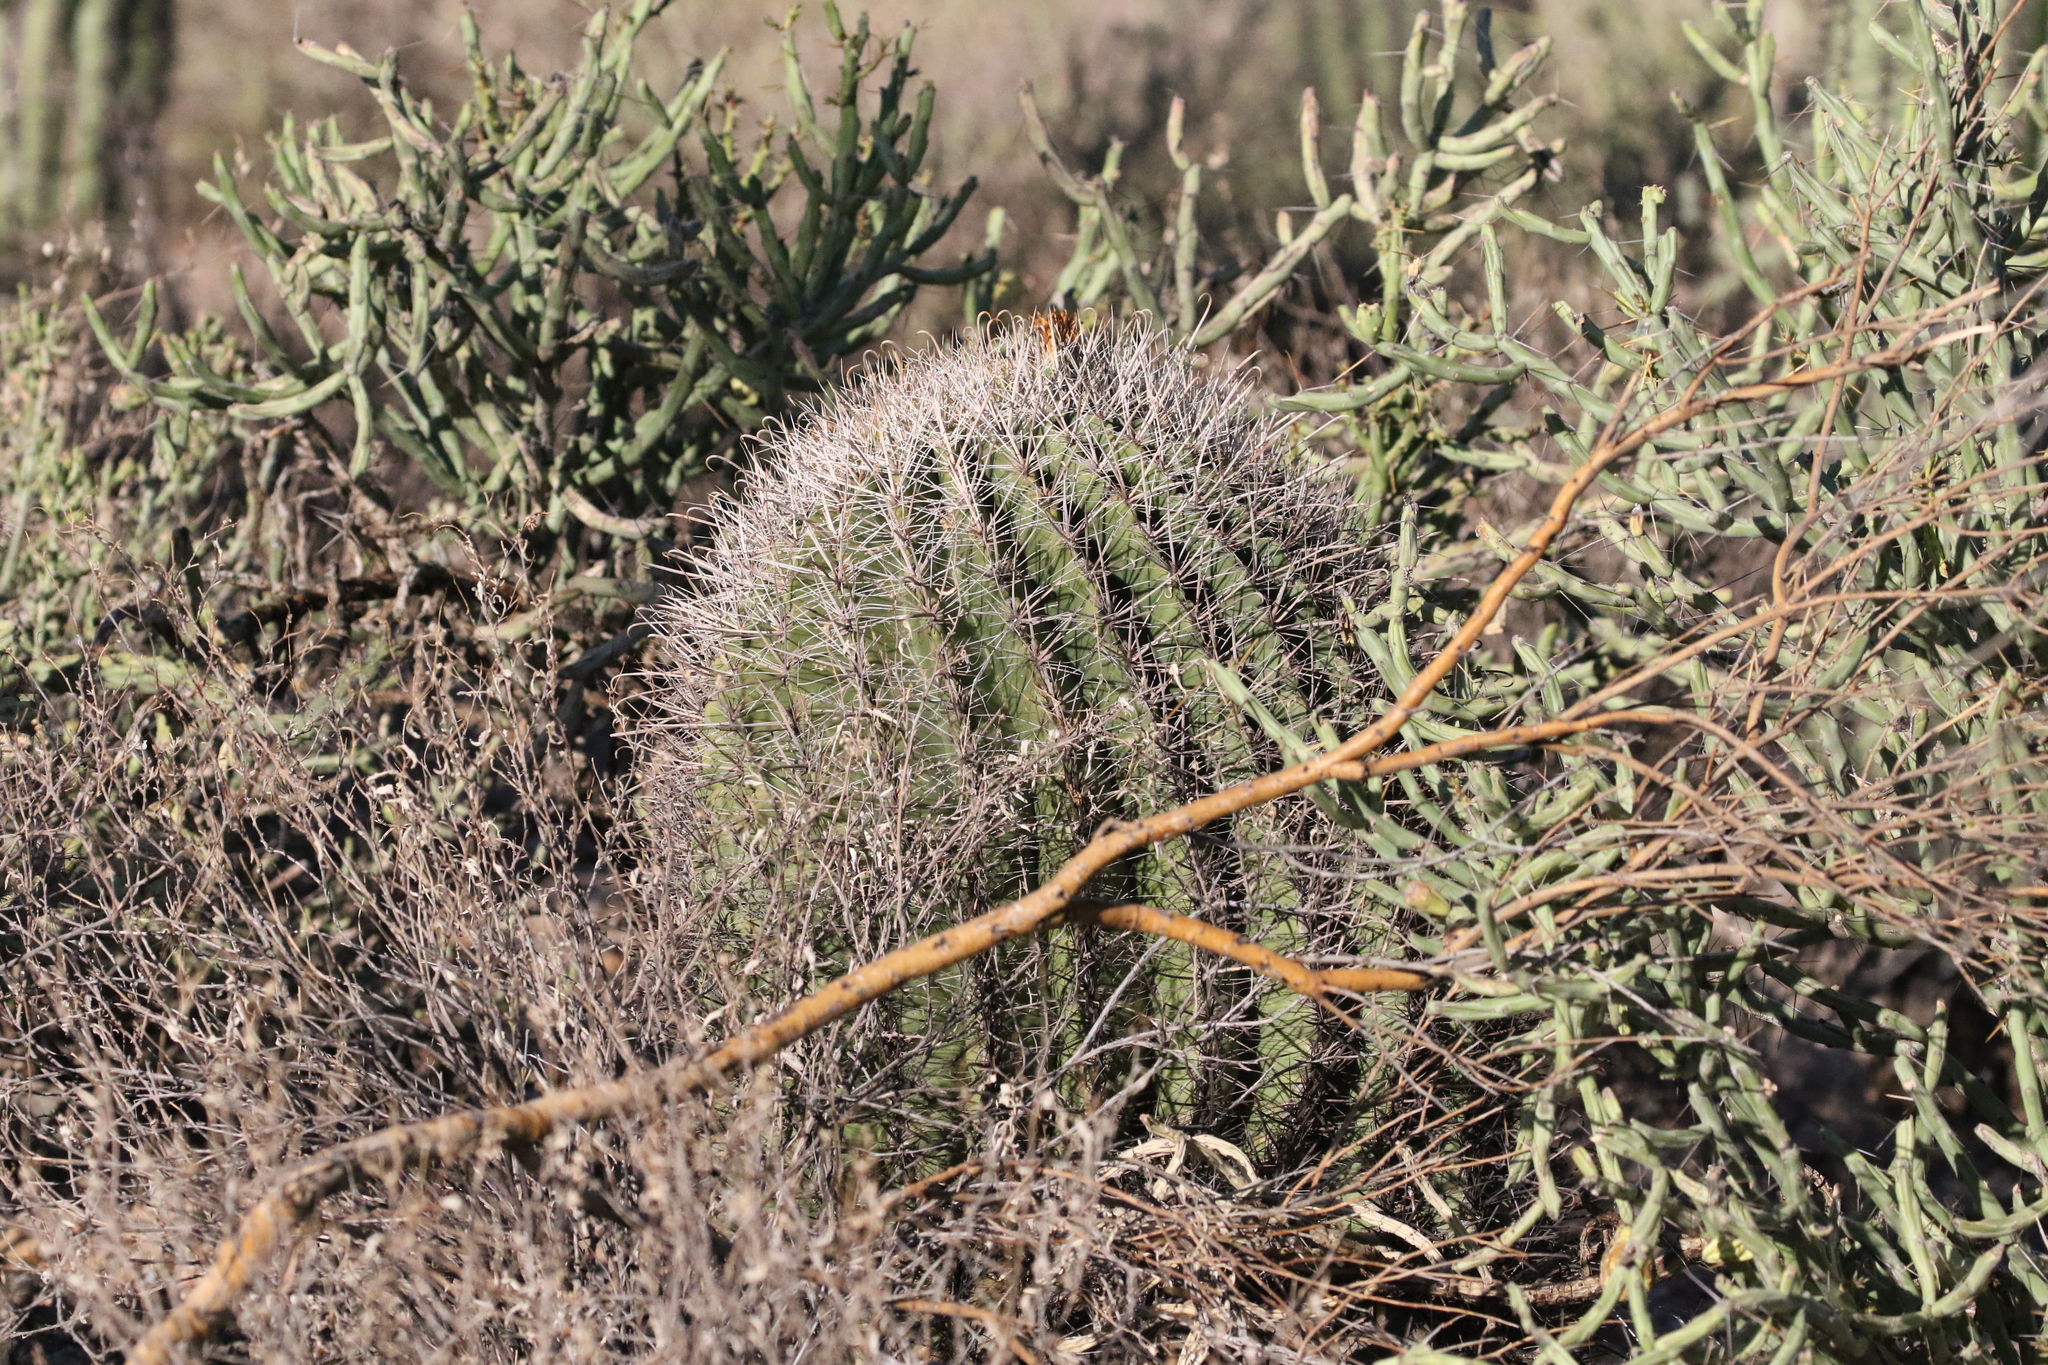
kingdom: Plantae
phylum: Tracheophyta
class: Magnoliopsida
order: Caryophyllales
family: Cactaceae
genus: Ferocactus
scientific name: Ferocactus wislizeni
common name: Candy barrel cactus
